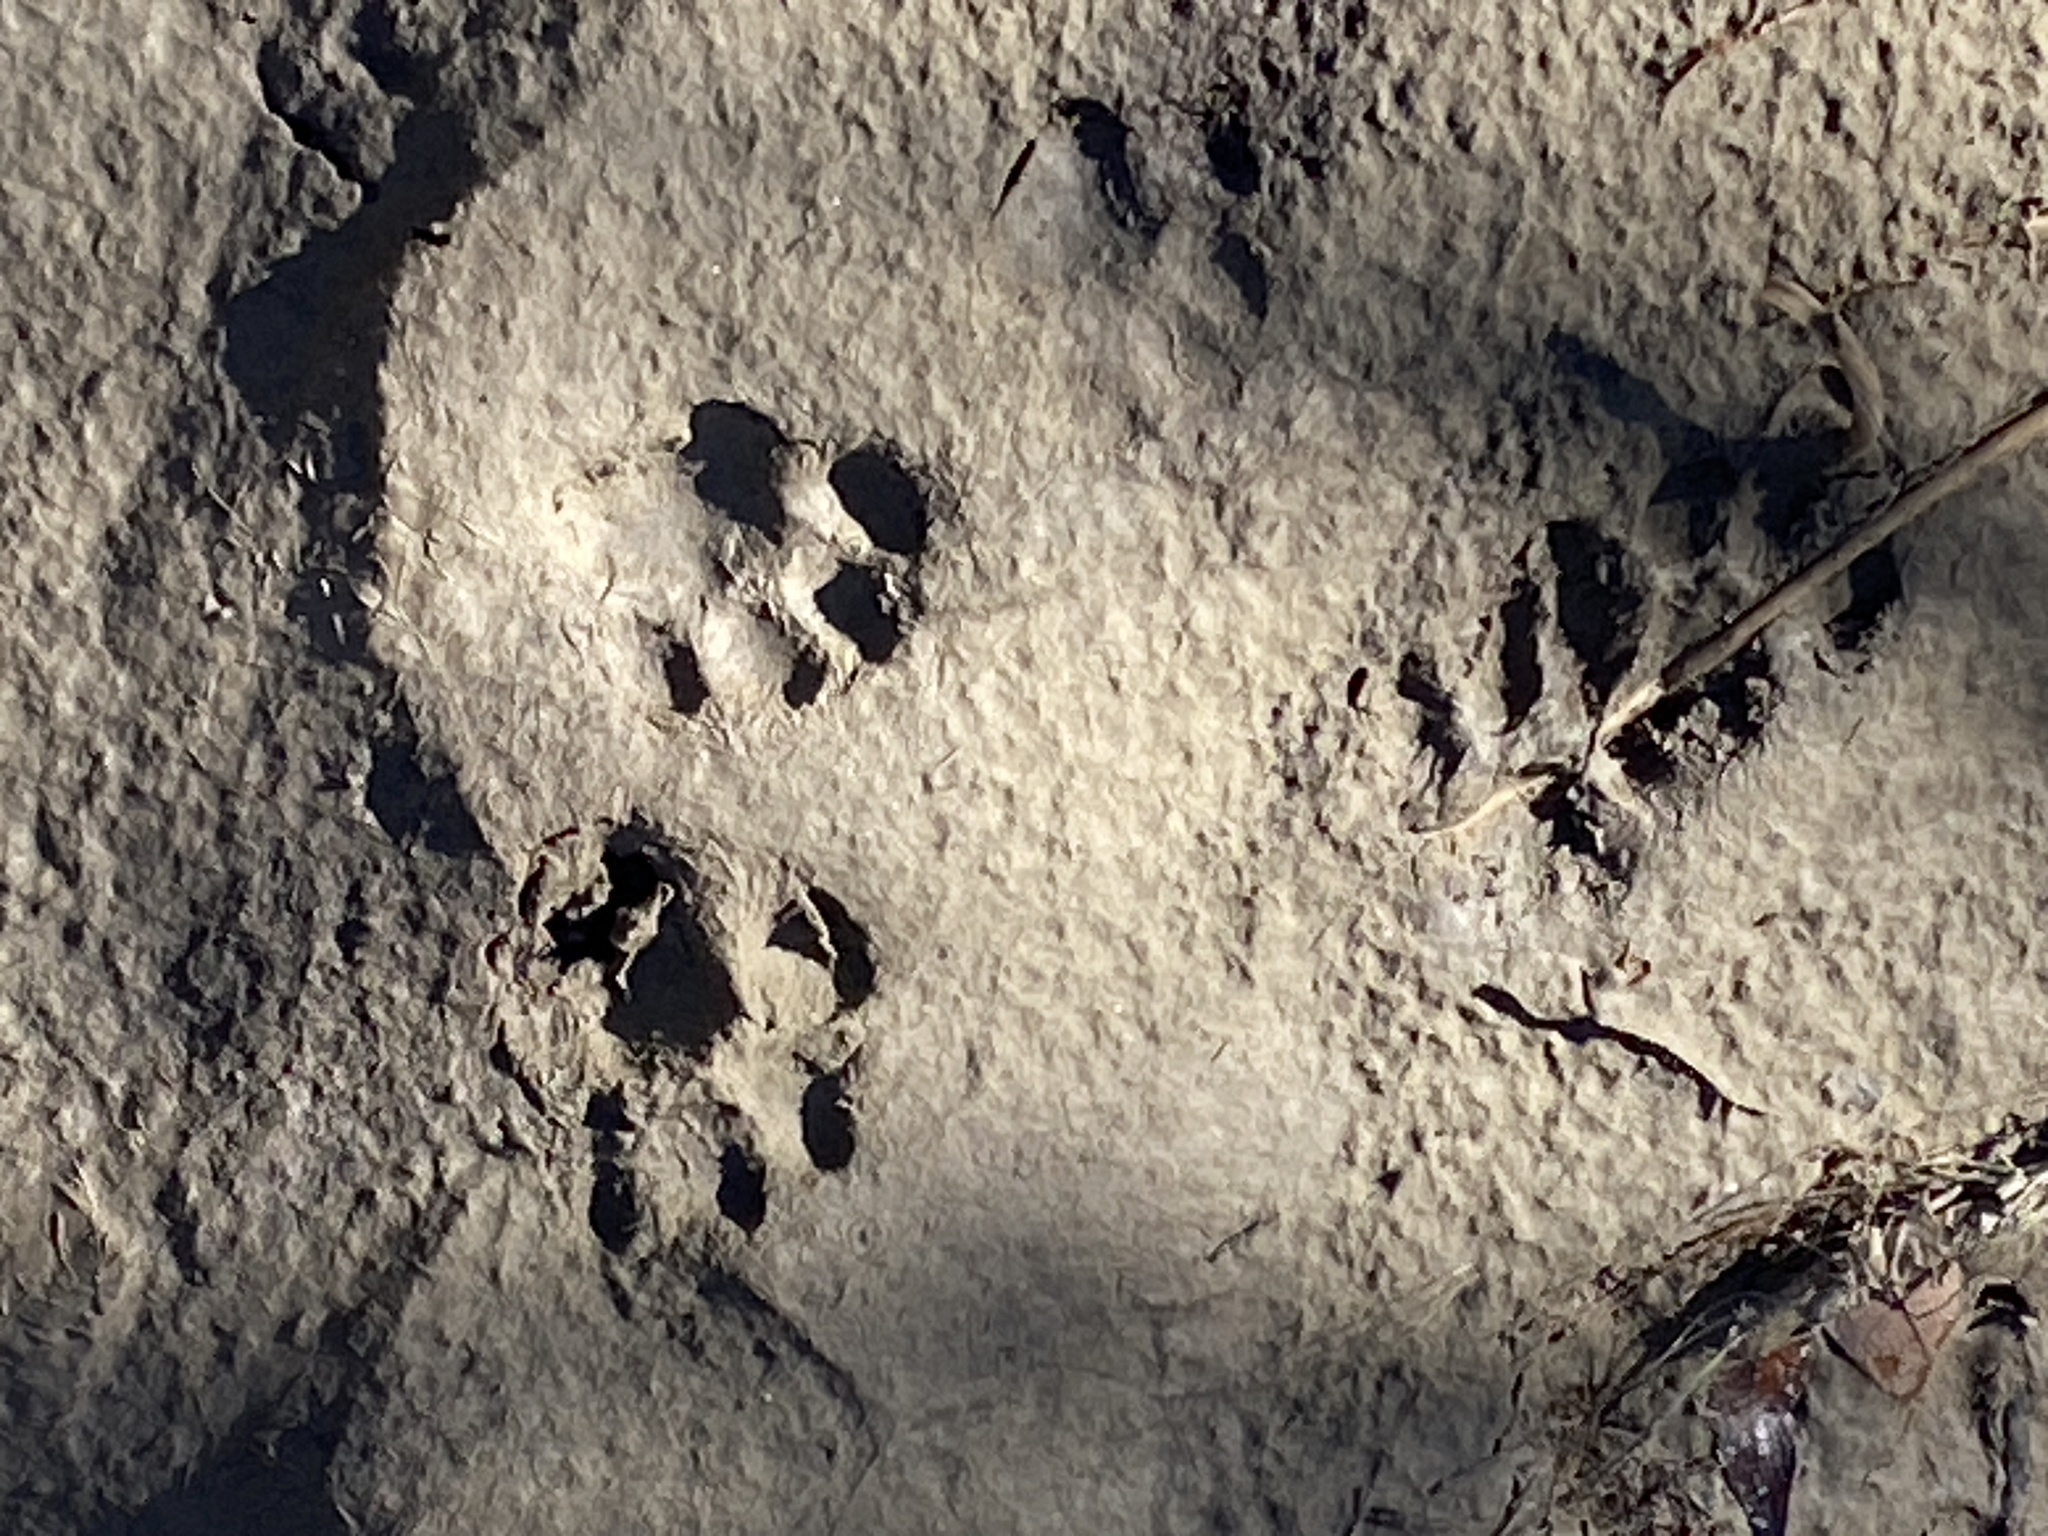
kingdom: Animalia
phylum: Chordata
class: Mammalia
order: Carnivora
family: Felidae
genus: Felis
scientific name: Felis catus
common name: Domestic cat
